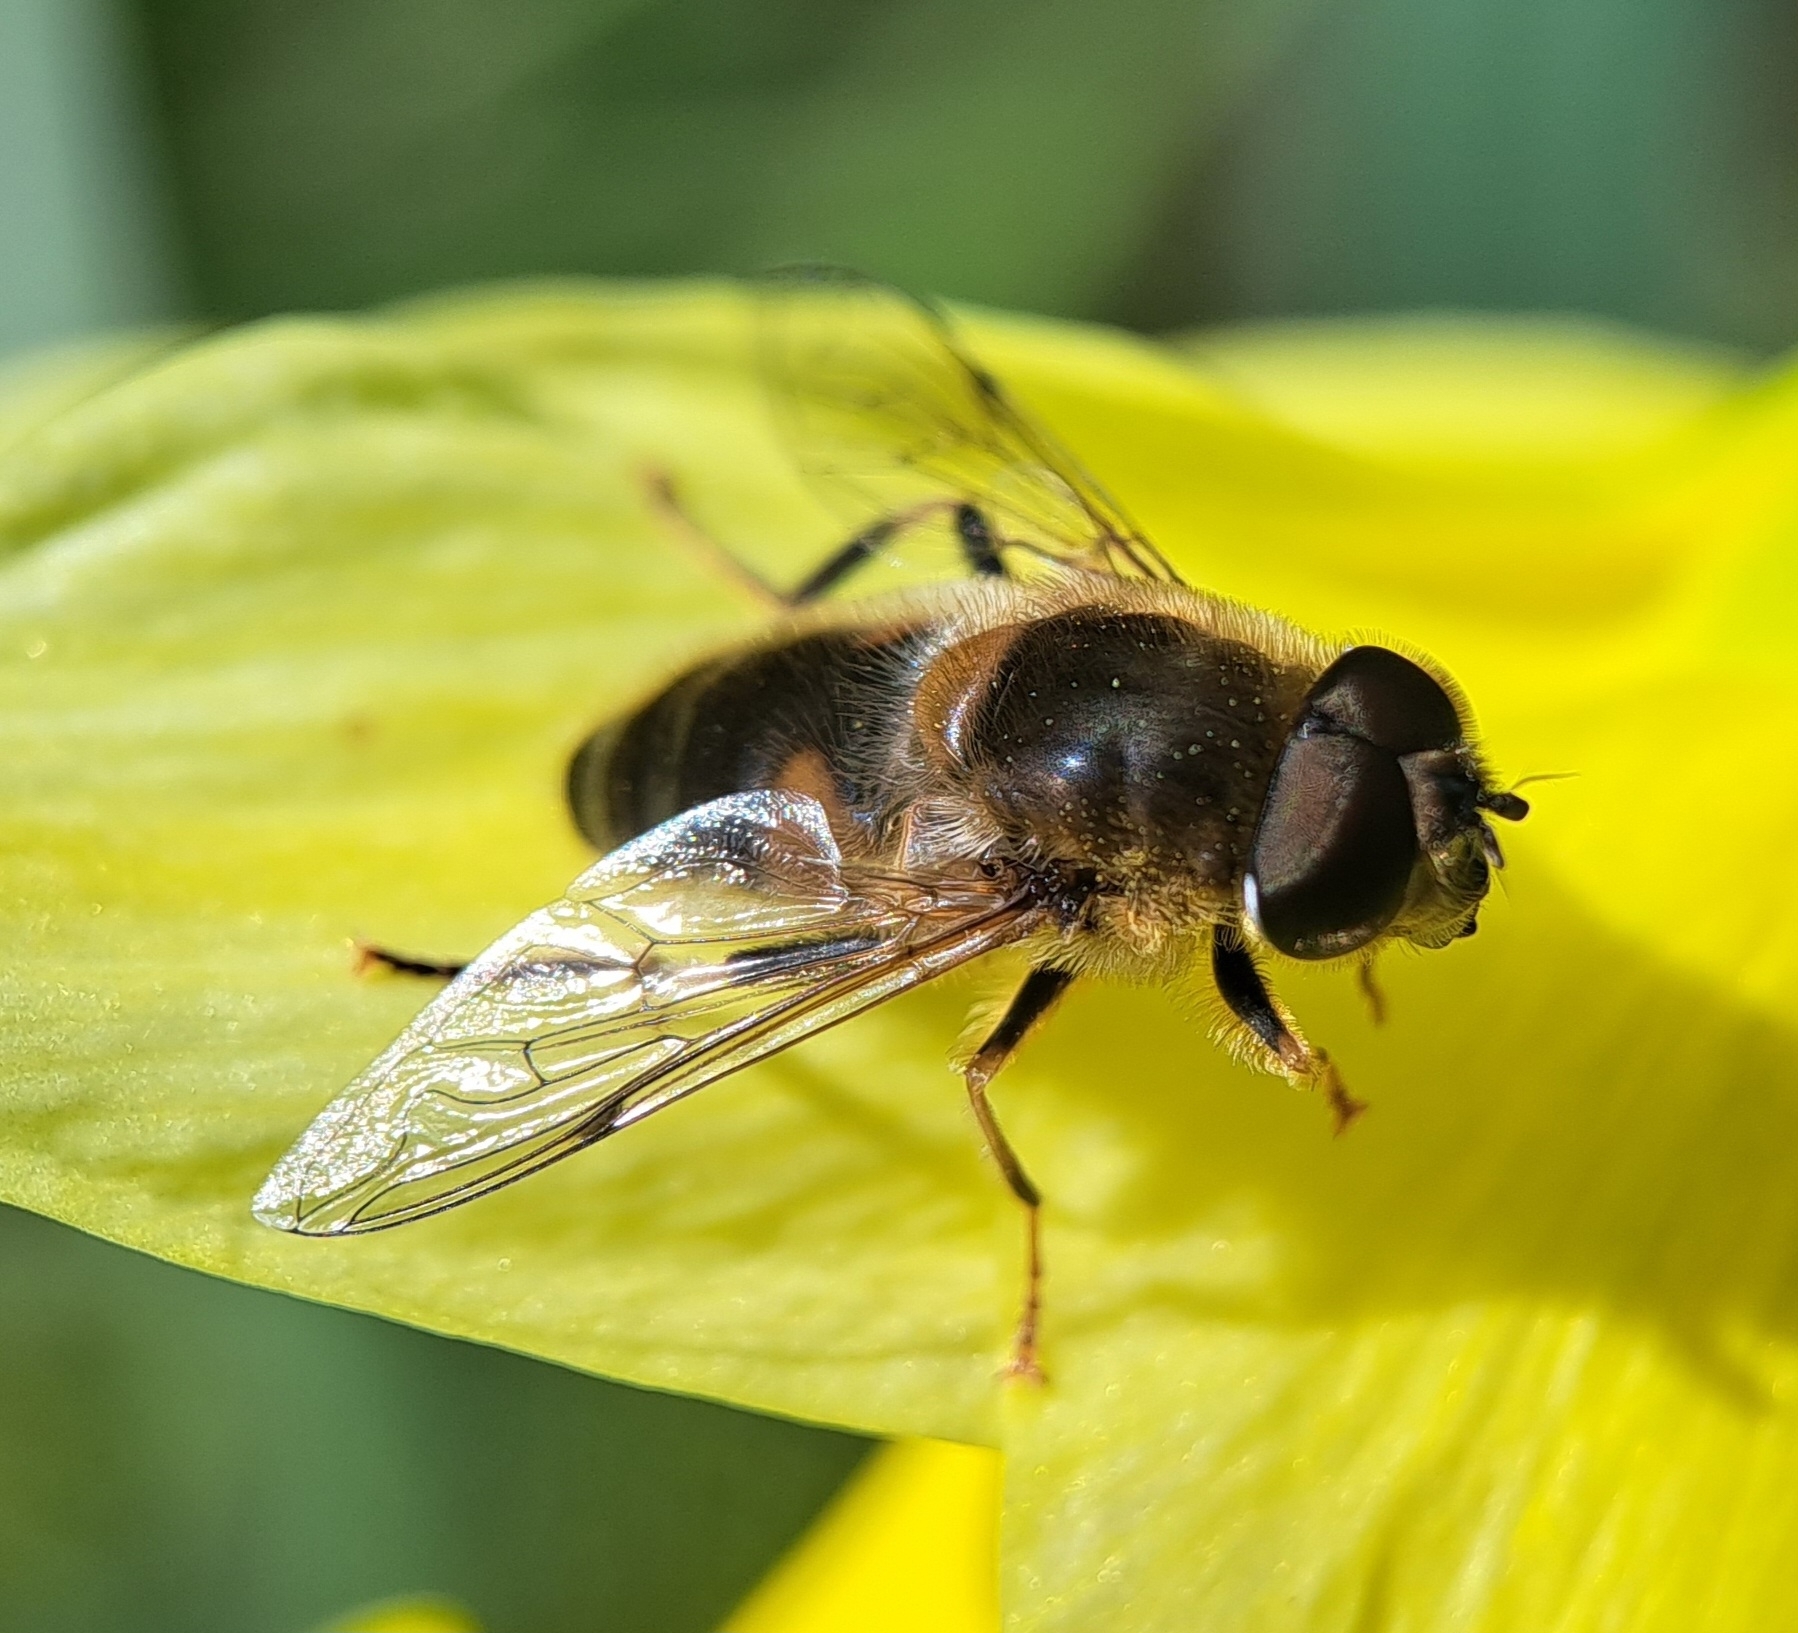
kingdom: Animalia
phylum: Arthropoda
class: Insecta
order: Diptera
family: Syrphidae
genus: Eristalis
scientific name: Eristalis pertinax
